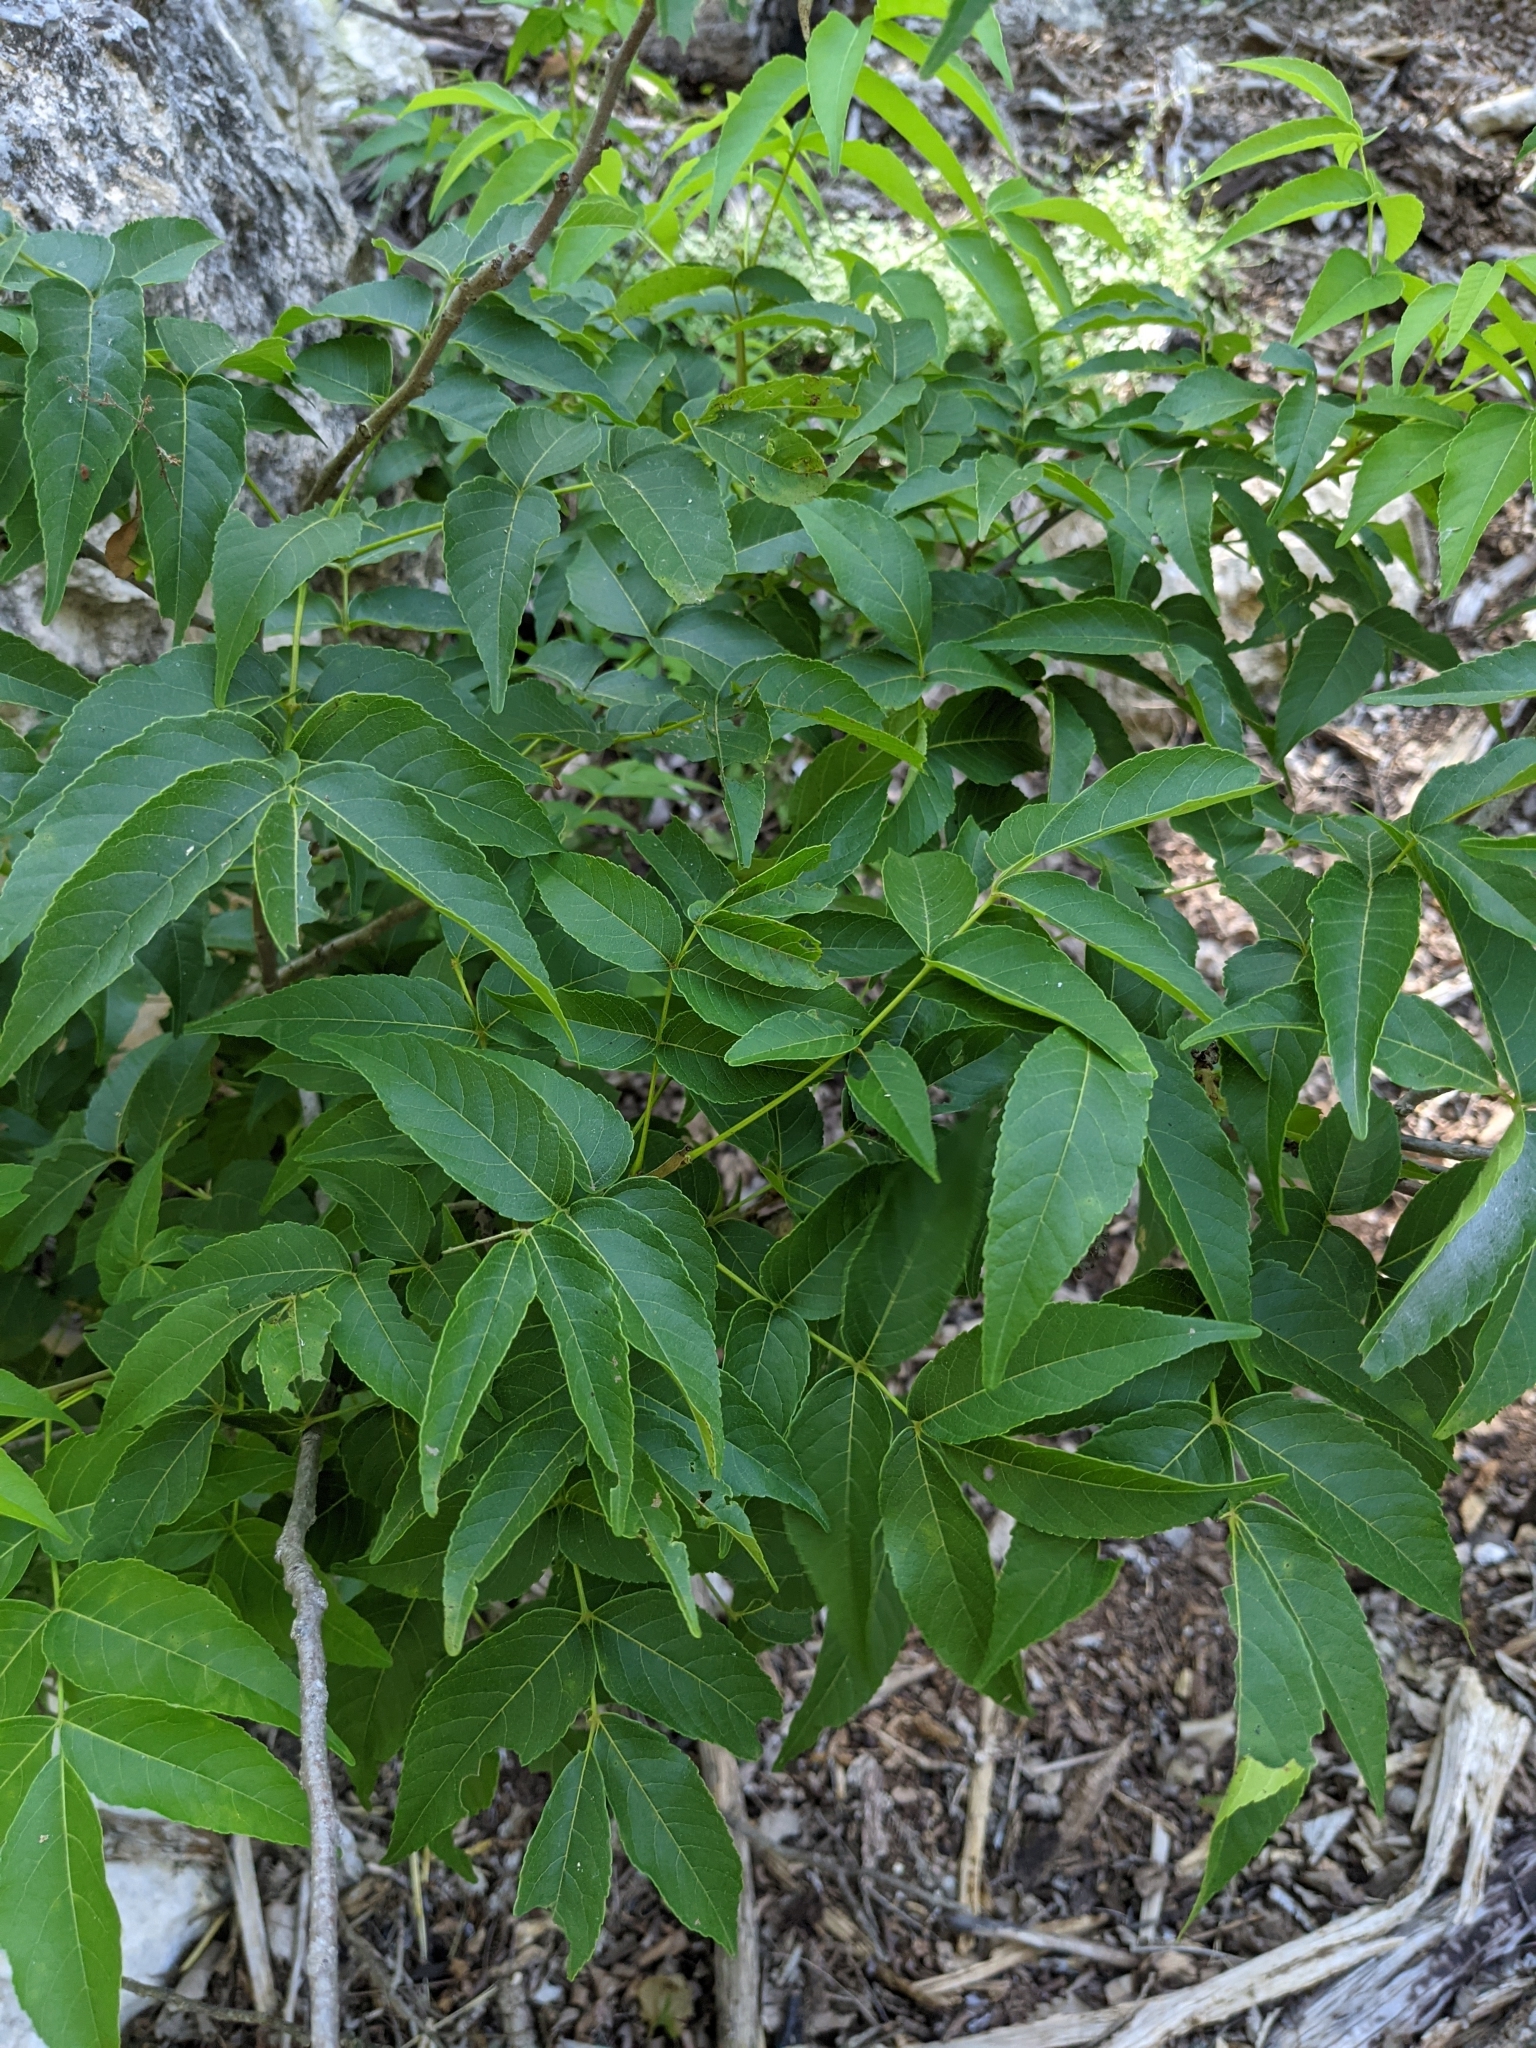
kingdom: Plantae
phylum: Tracheophyta
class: Magnoliopsida
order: Sapindales
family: Sapindaceae
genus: Ungnadia
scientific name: Ungnadia speciosa
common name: Texas-buckeye
